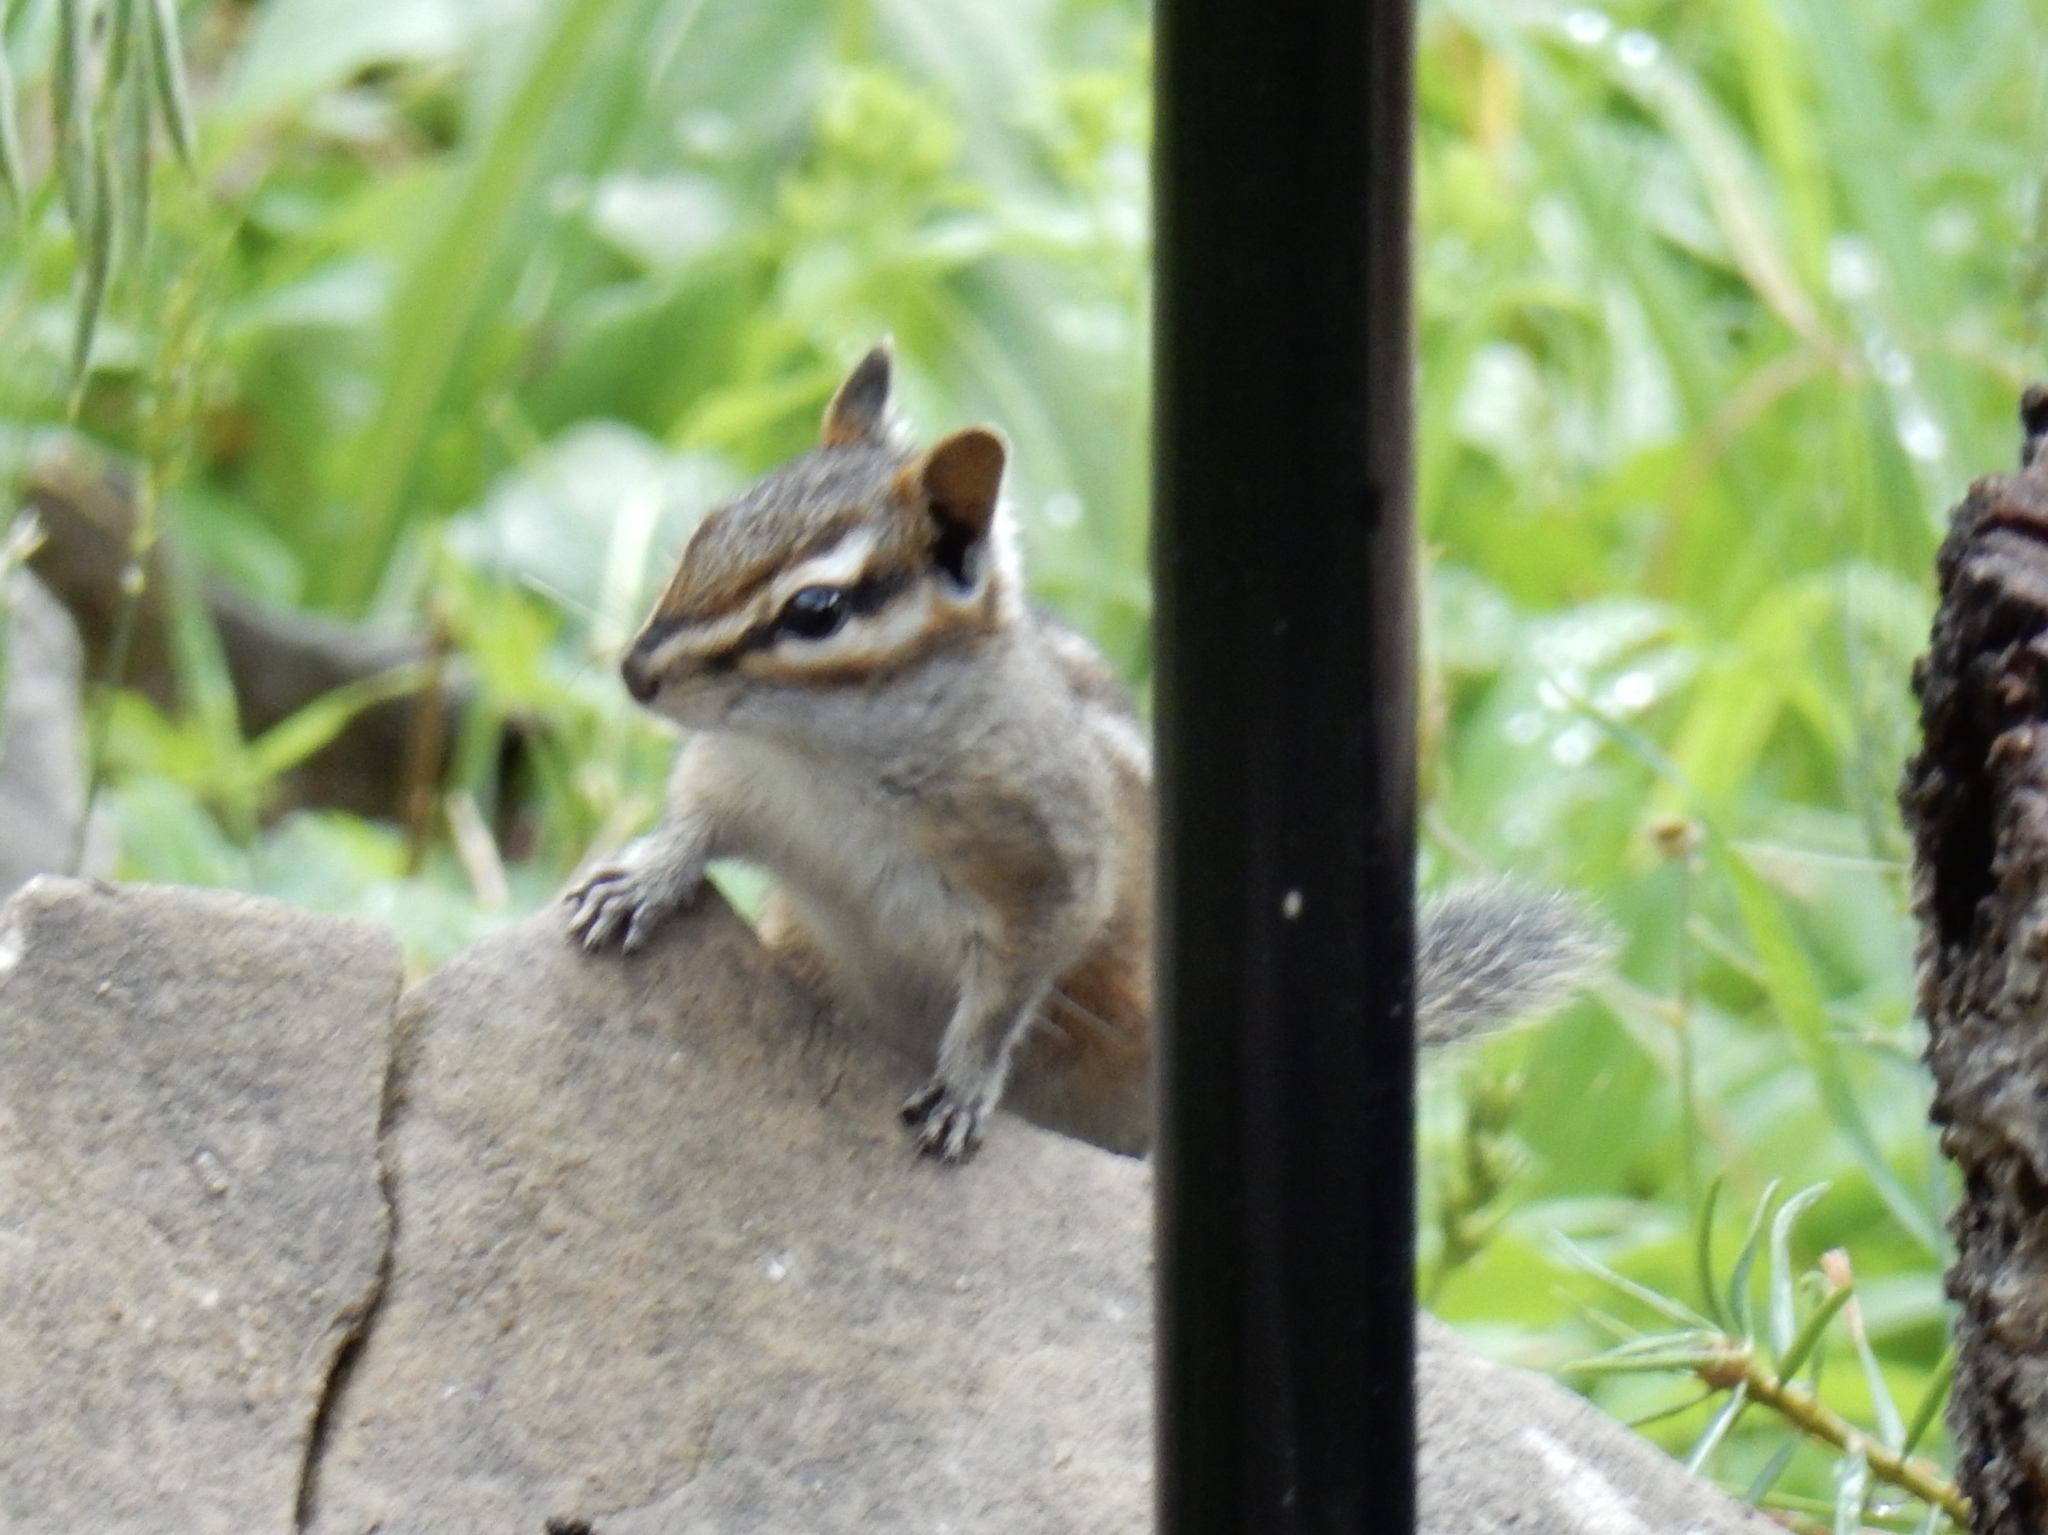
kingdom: Animalia
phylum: Chordata
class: Mammalia
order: Rodentia
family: Sciuridae
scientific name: Sciuridae
